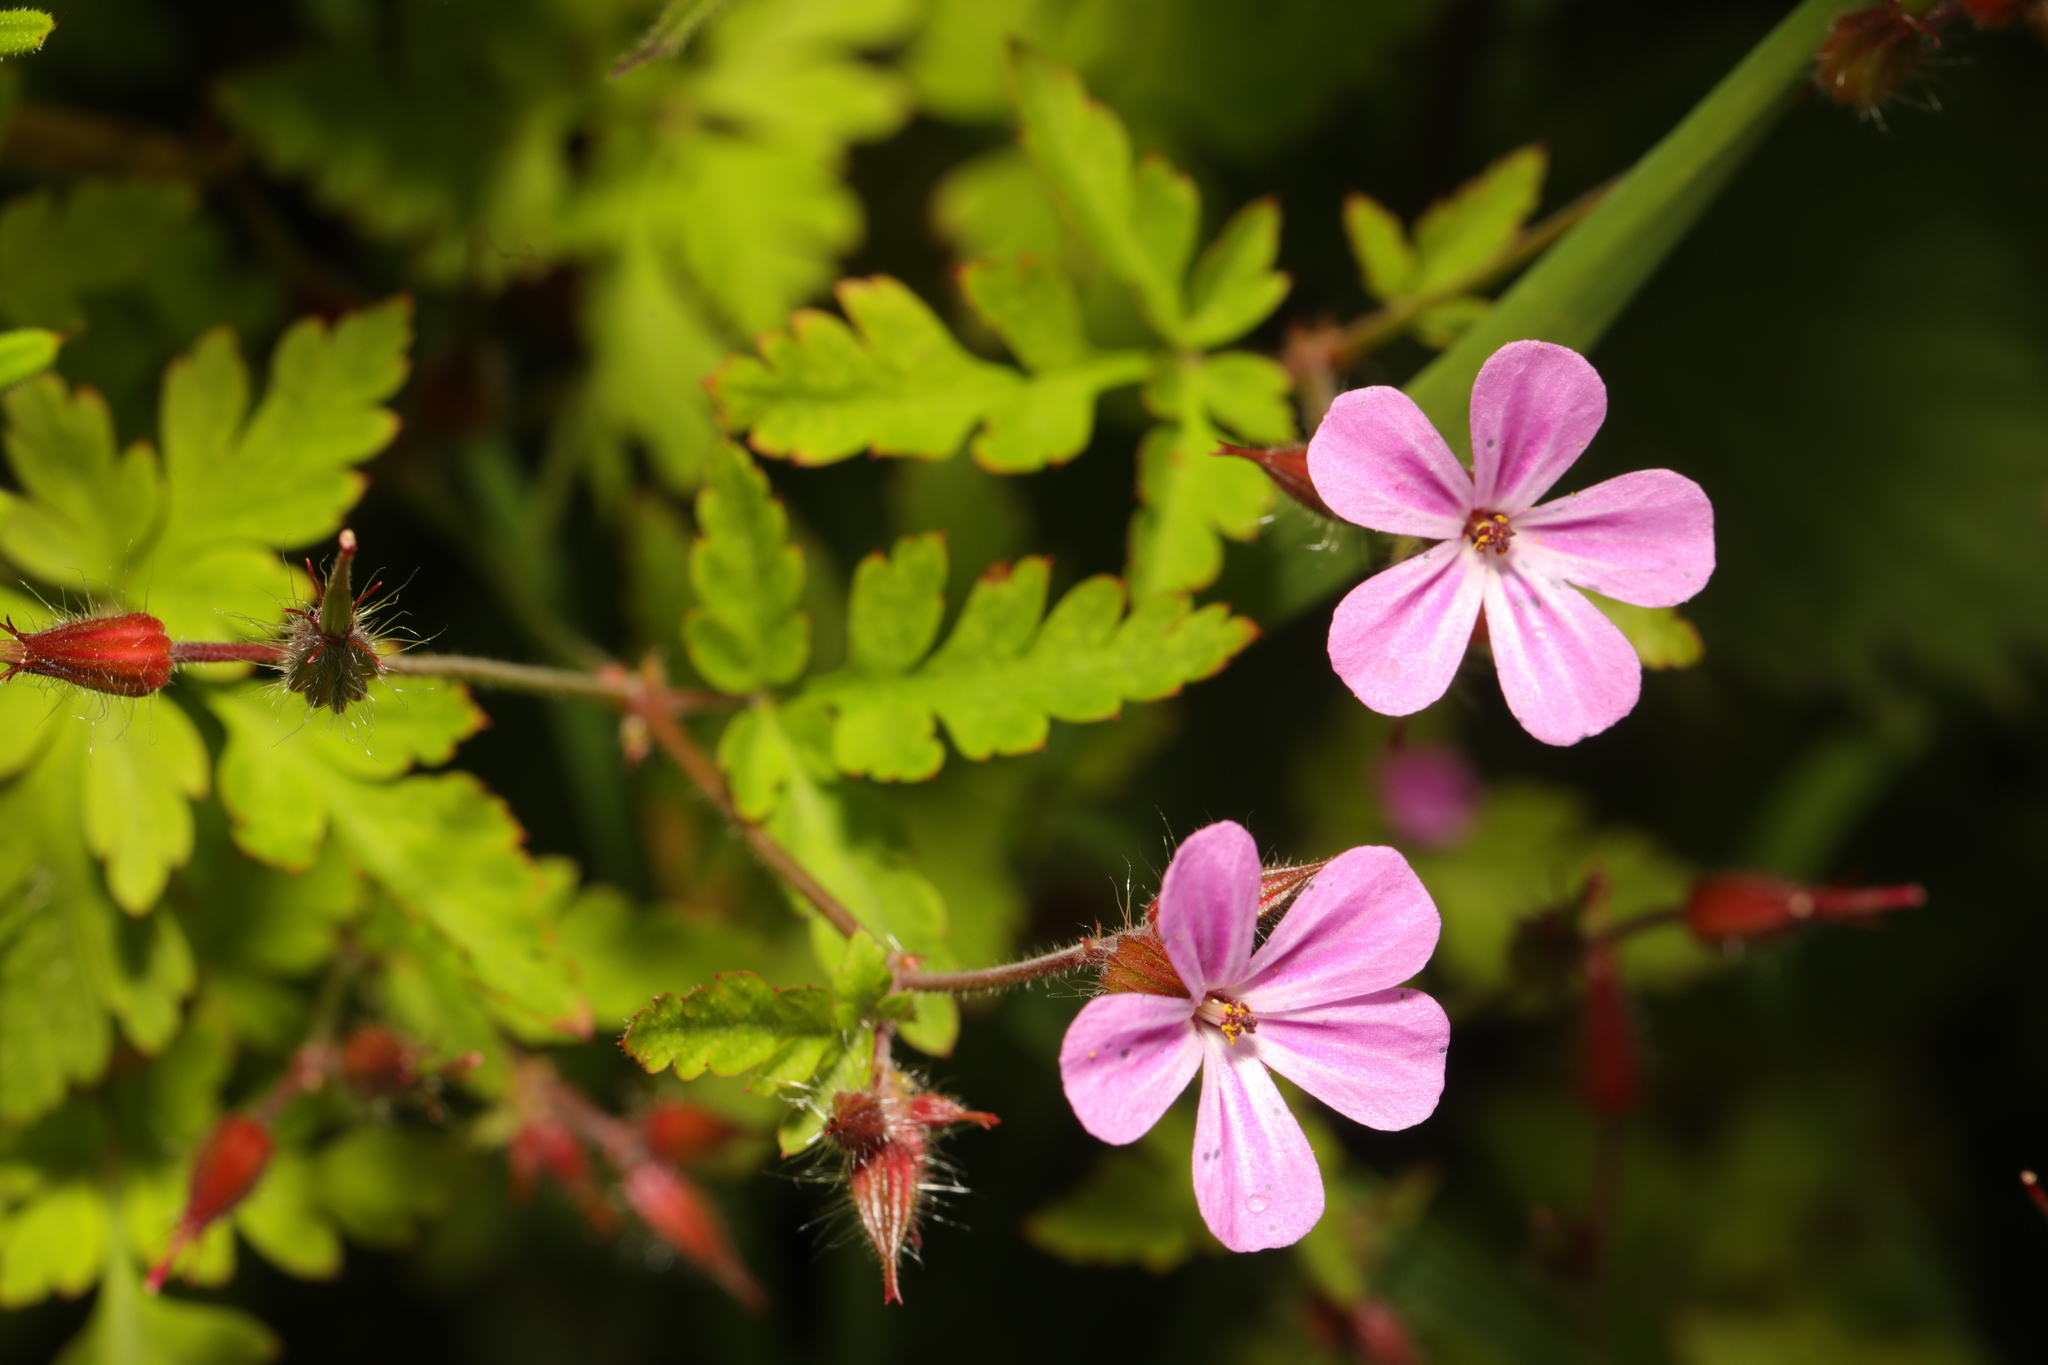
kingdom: Plantae
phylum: Tracheophyta
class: Magnoliopsida
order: Geraniales
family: Geraniaceae
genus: Geranium
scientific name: Geranium robertianum
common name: Herb-robert
